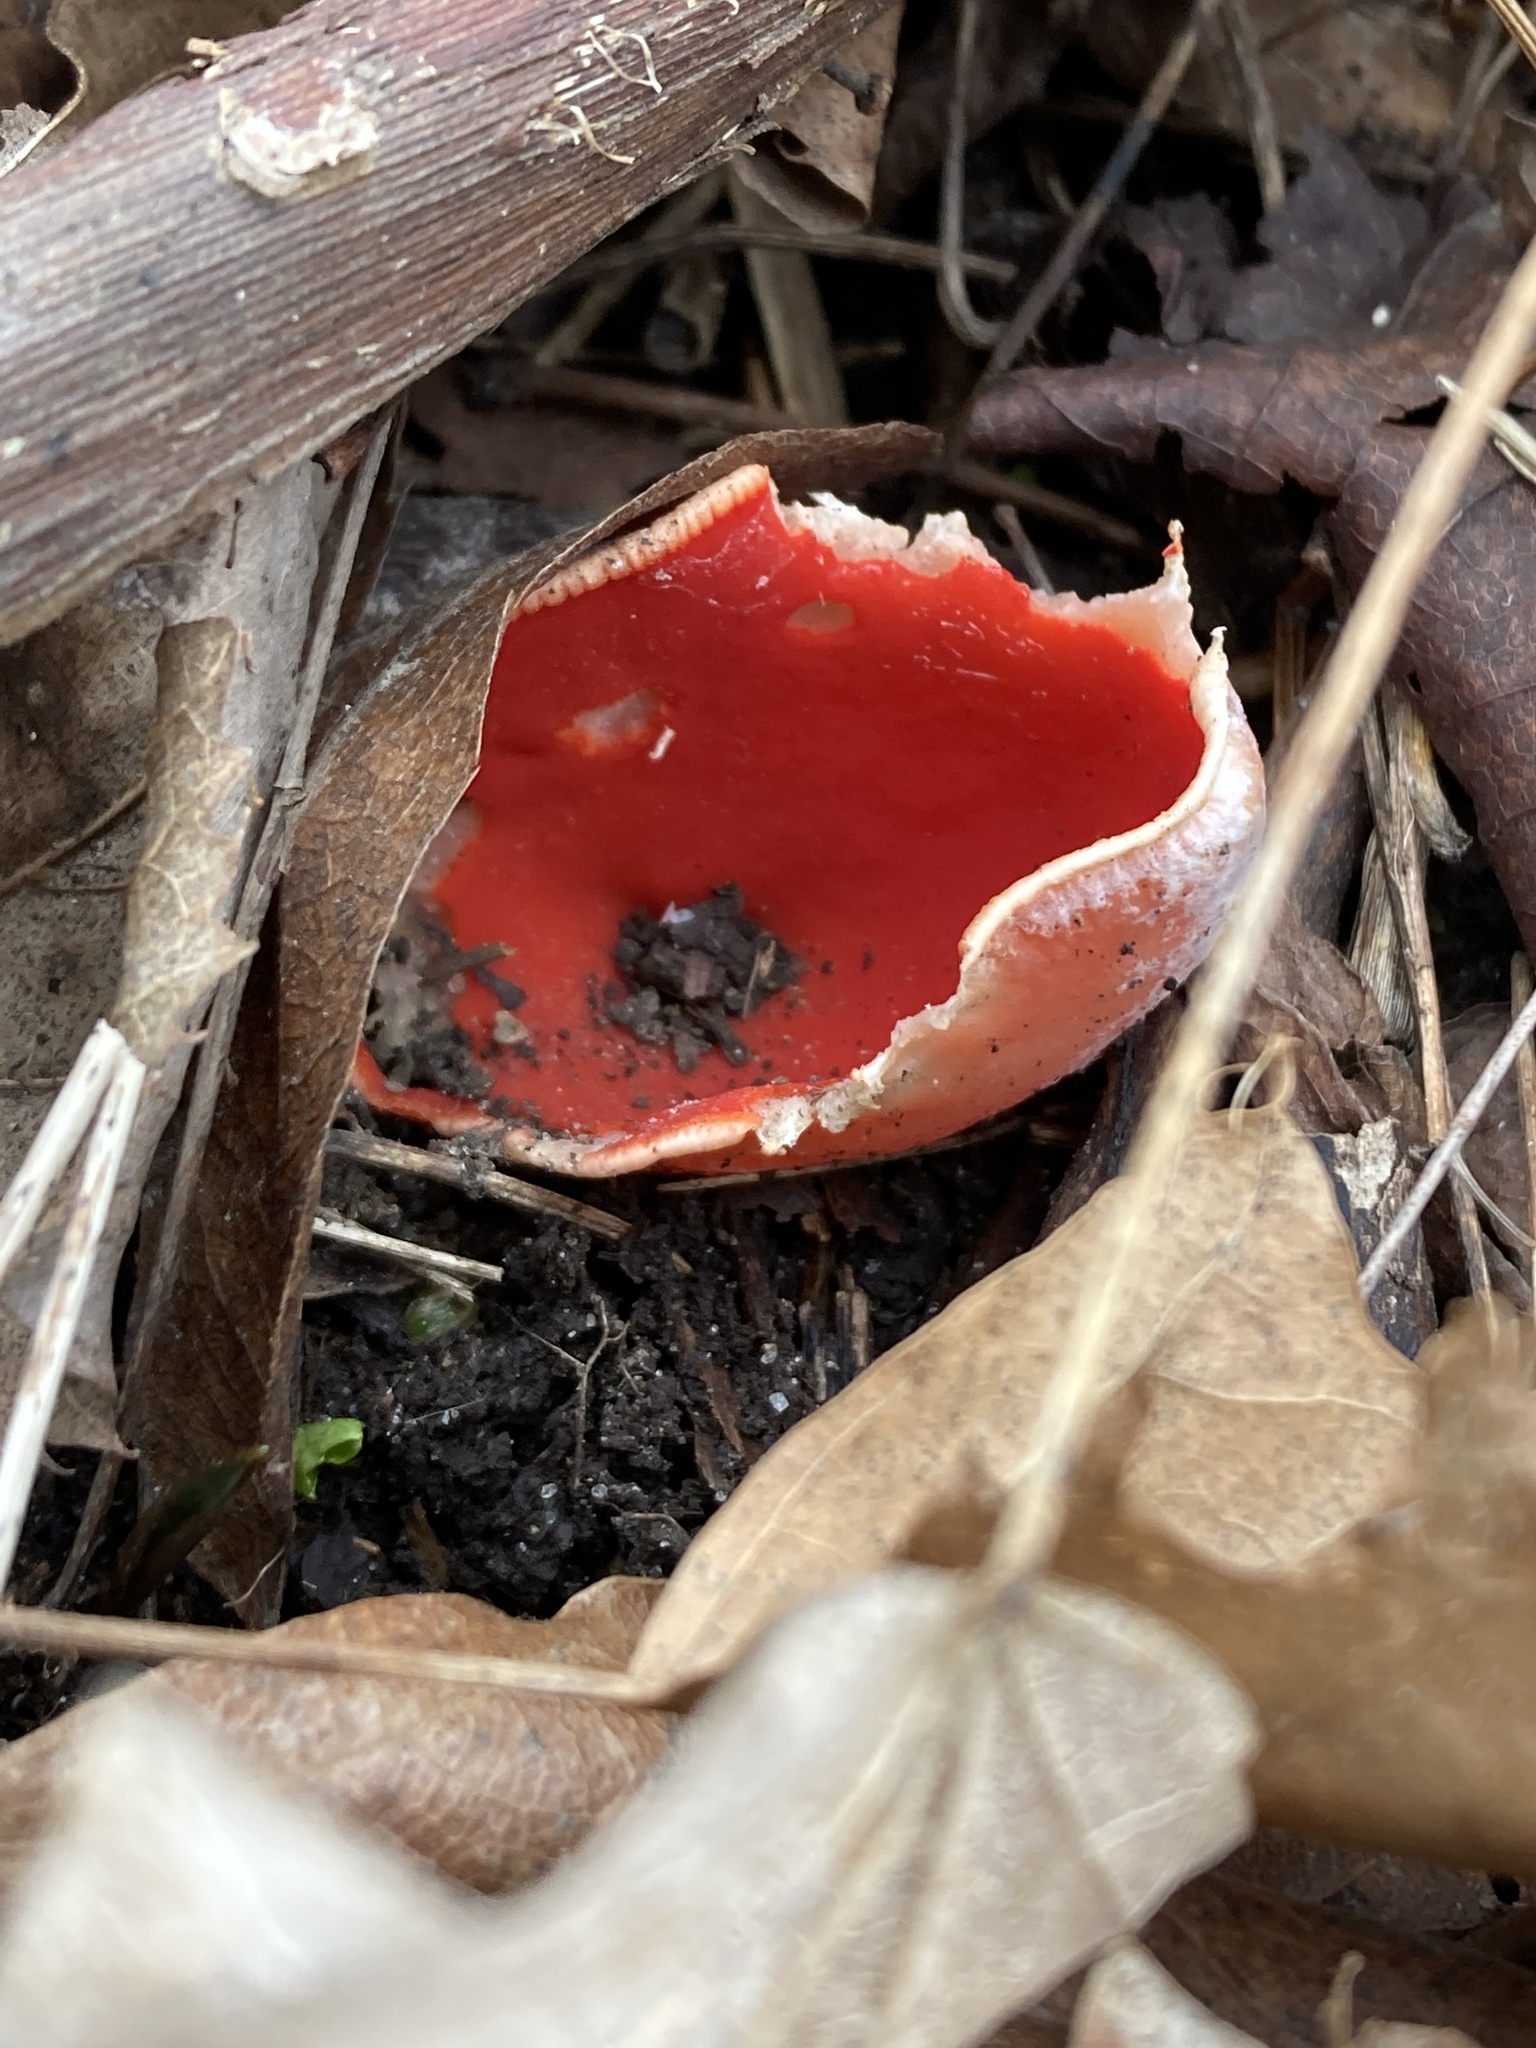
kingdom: Fungi
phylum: Ascomycota
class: Pezizomycetes
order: Pezizales
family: Sarcoscyphaceae
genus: Sarcoscypha
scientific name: Sarcoscypha austriaca
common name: Scarlet elfcup
